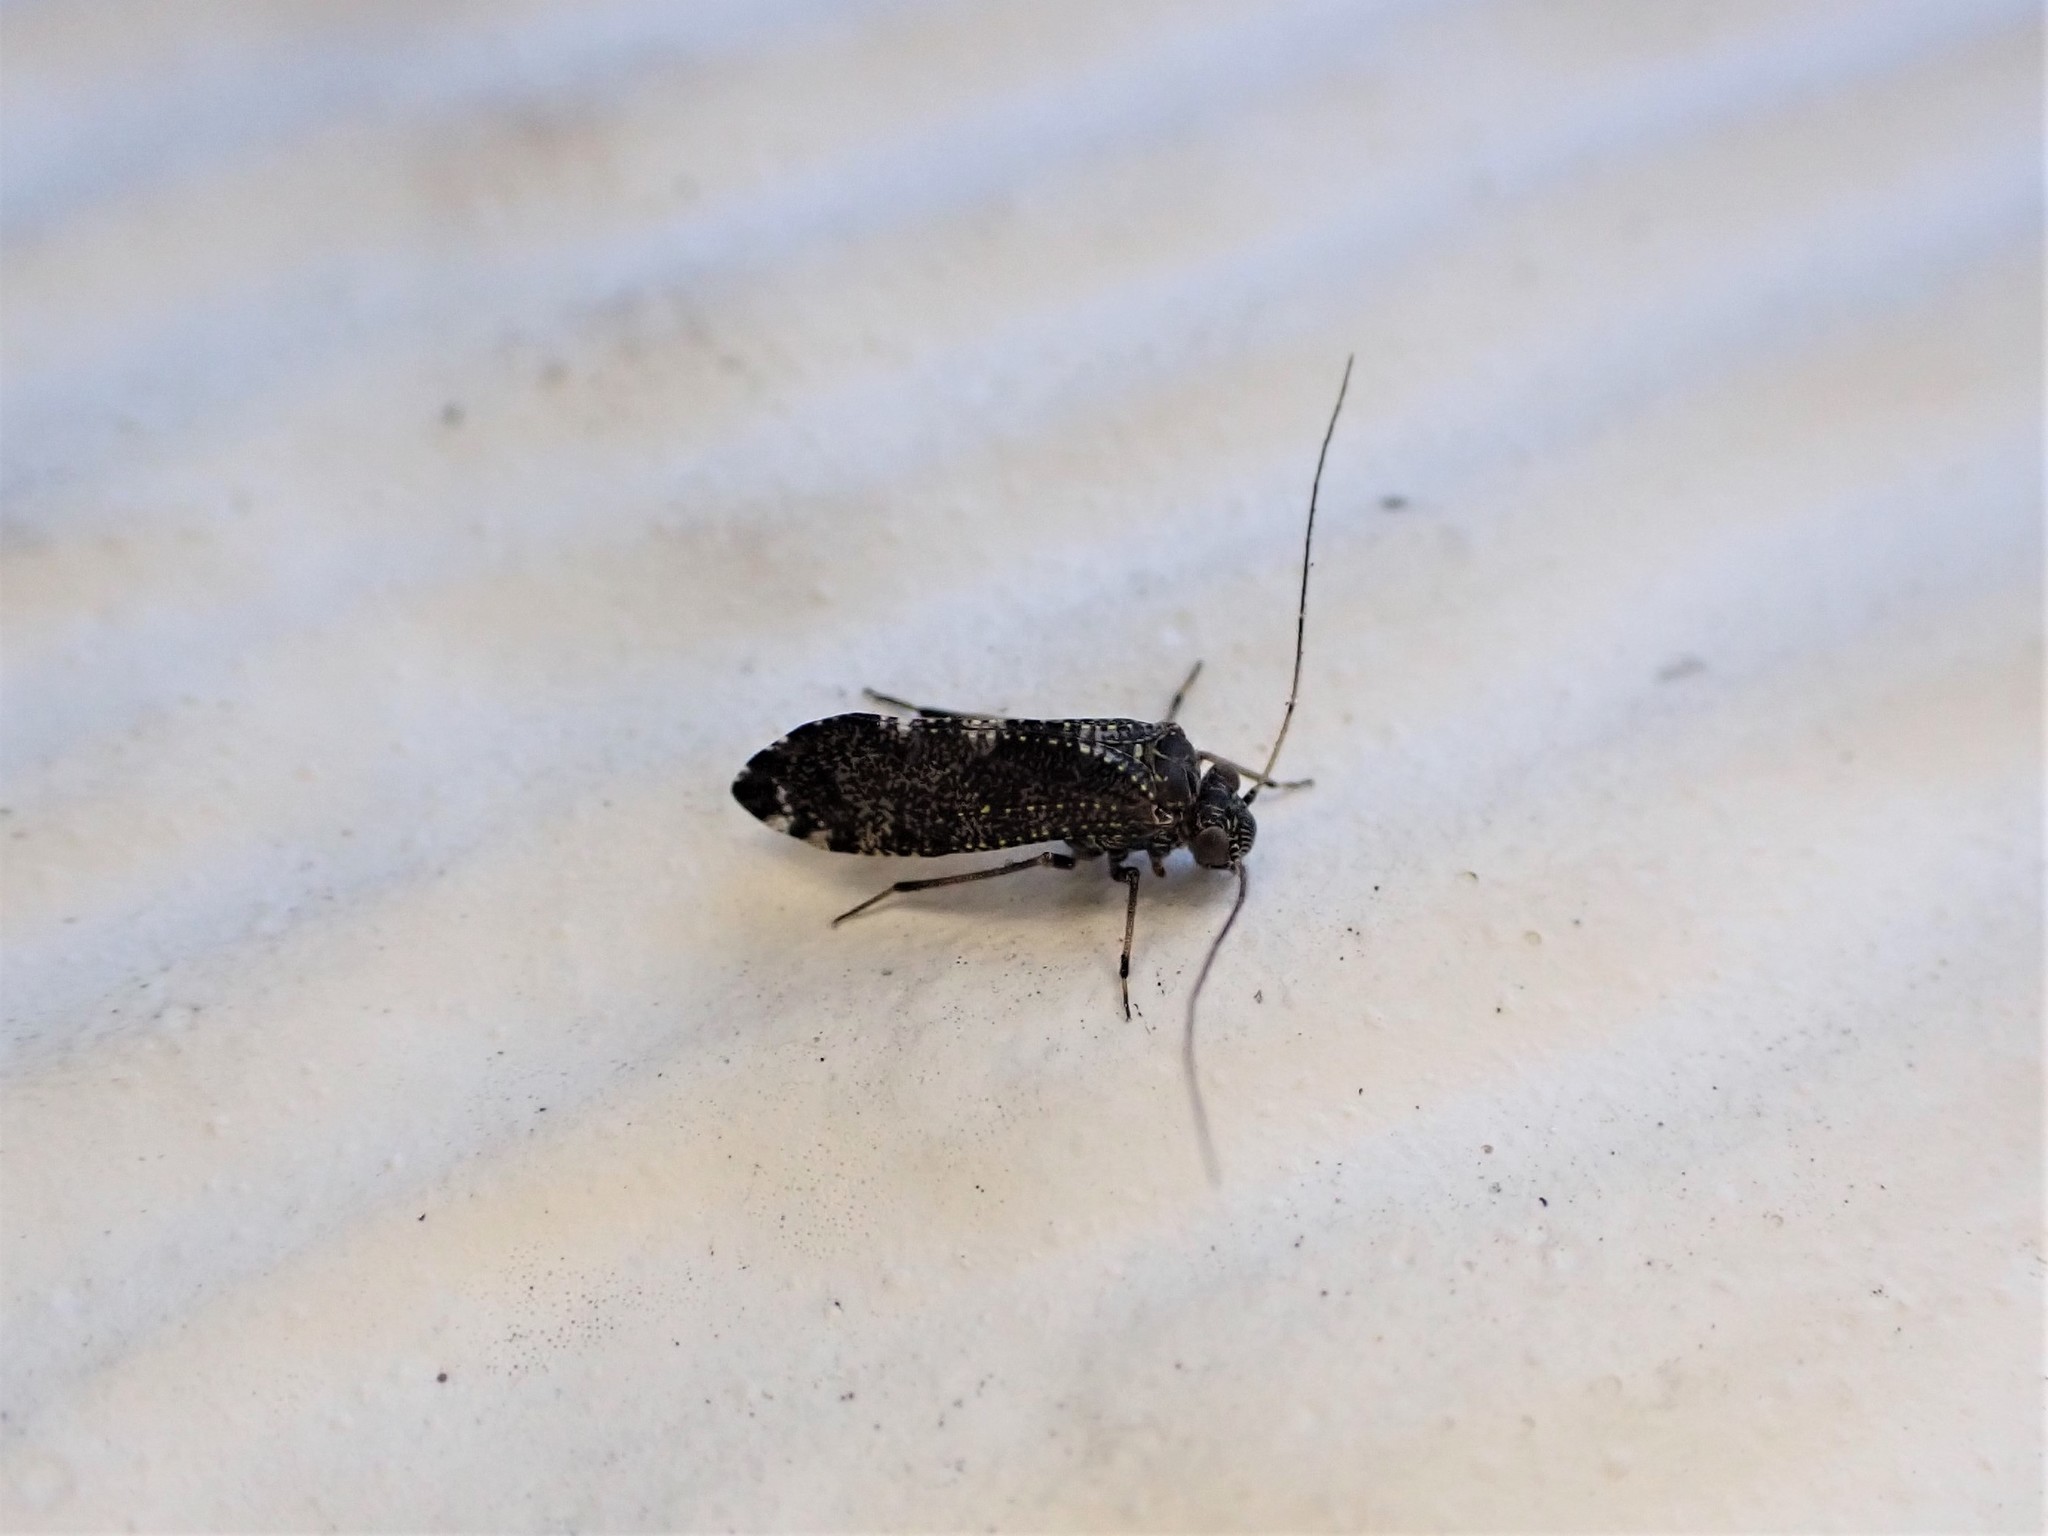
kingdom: Animalia
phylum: Arthropoda
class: Insecta
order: Psocodea
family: Myopsocidae
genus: Nimbopsocus
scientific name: Nimbopsocus australis
